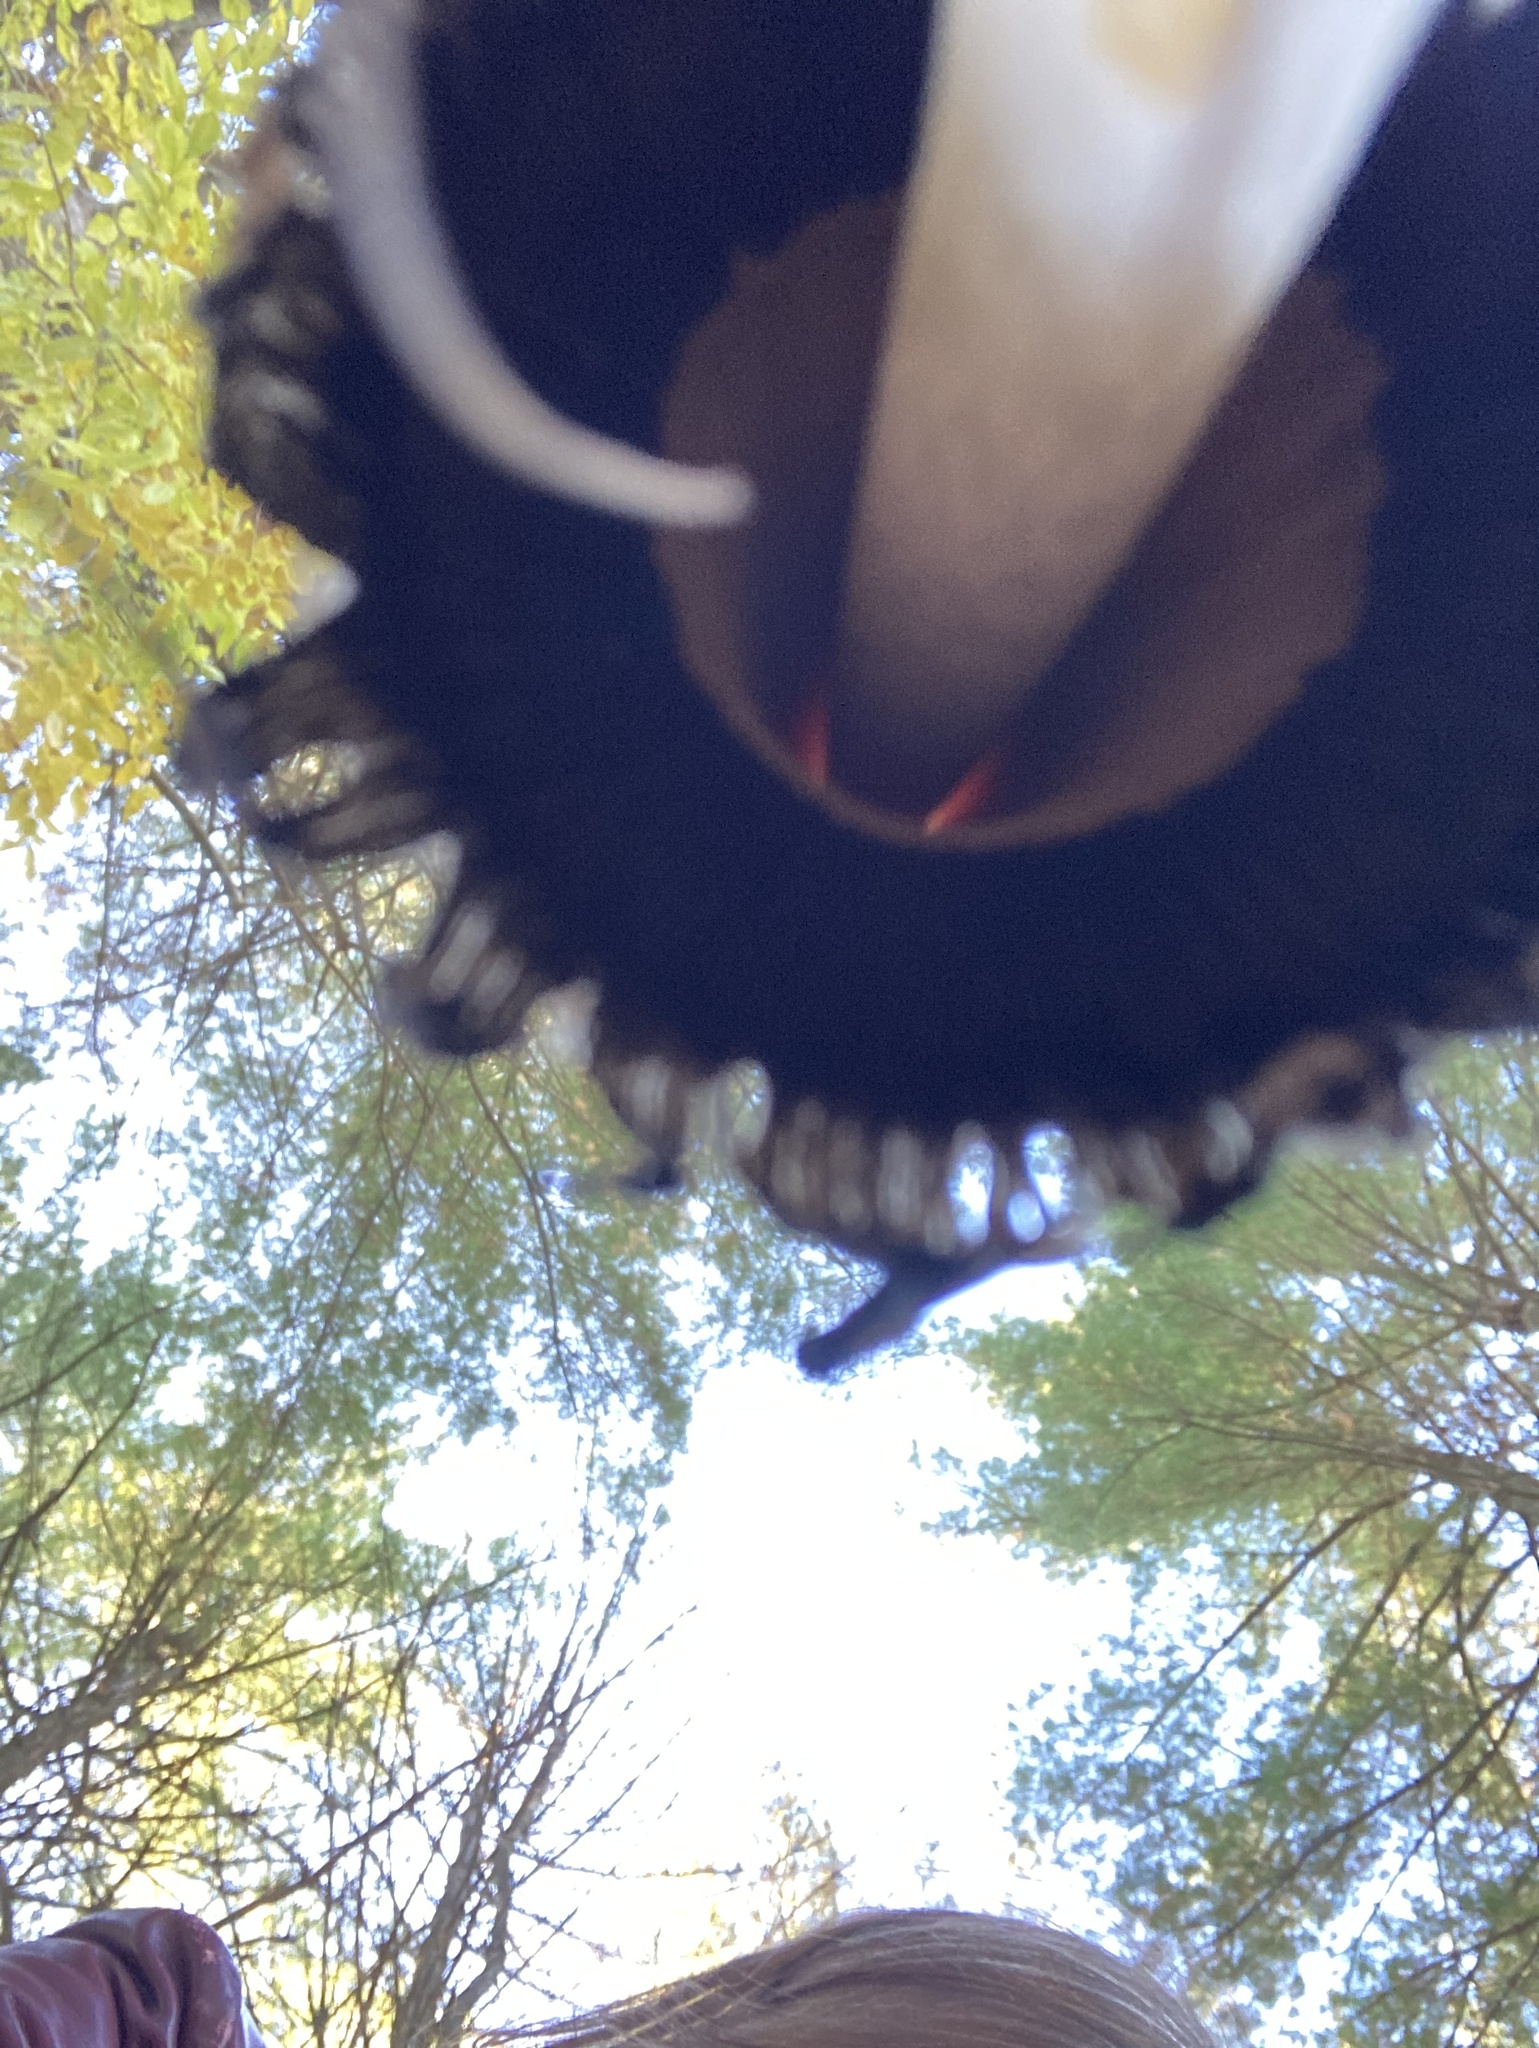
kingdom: Fungi
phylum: Basidiomycota
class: Agaricomycetes
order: Agaricales
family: Agaricaceae
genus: Coprinus
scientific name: Coprinus comatus
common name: Lawyer's wig
